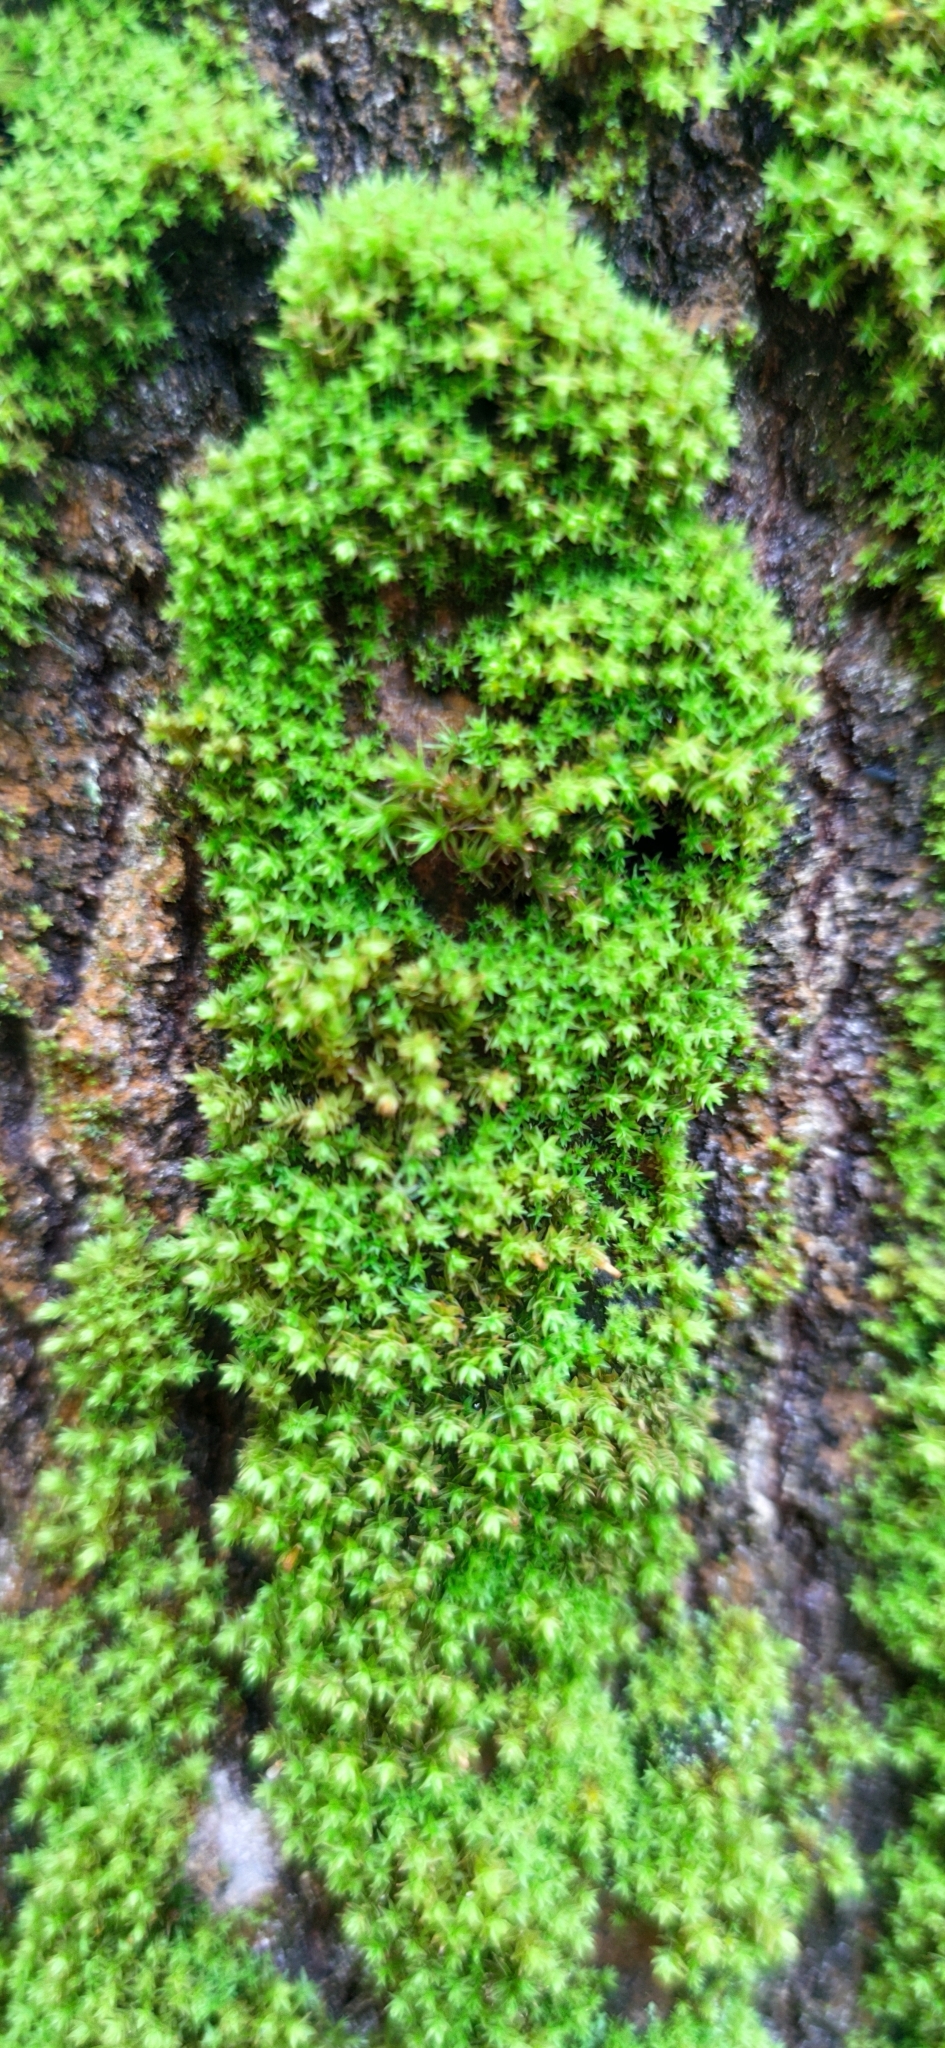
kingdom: Plantae
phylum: Bryophyta
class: Bryopsida
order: Orthotrichales
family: Orthotrichaceae
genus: Nyholmiella
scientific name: Nyholmiella obtusifolia
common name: Blunt-leaved bristle-moss
